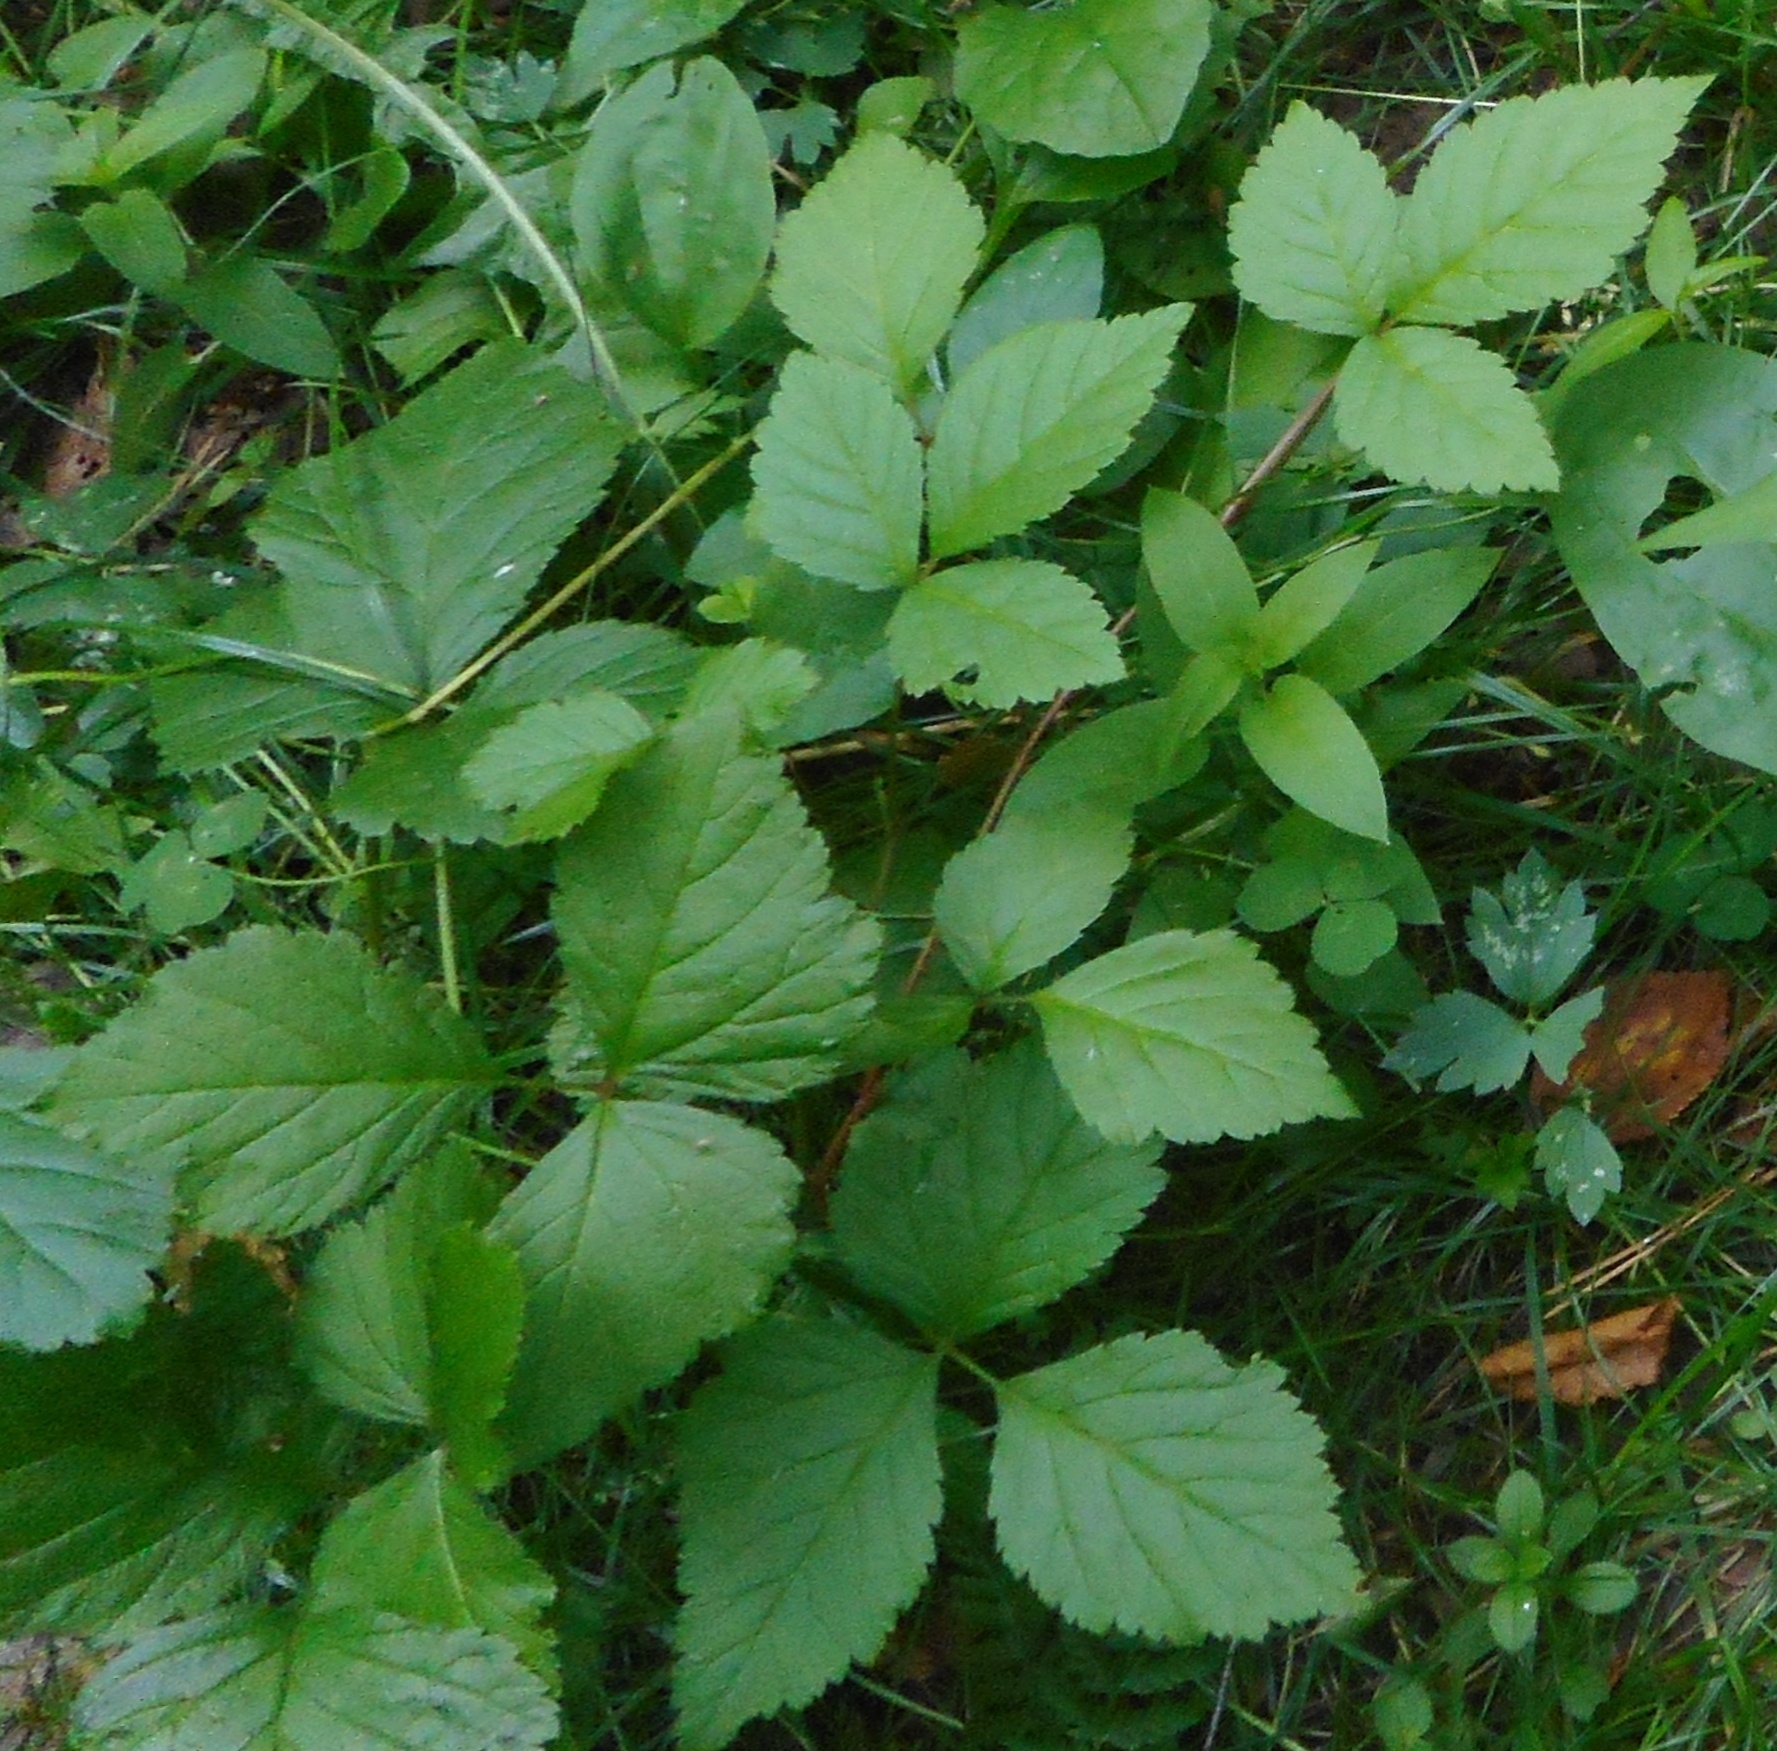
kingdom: Plantae
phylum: Tracheophyta
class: Magnoliopsida
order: Rosales
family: Rosaceae
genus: Rubus
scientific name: Rubus saxatilis
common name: Stone bramble
